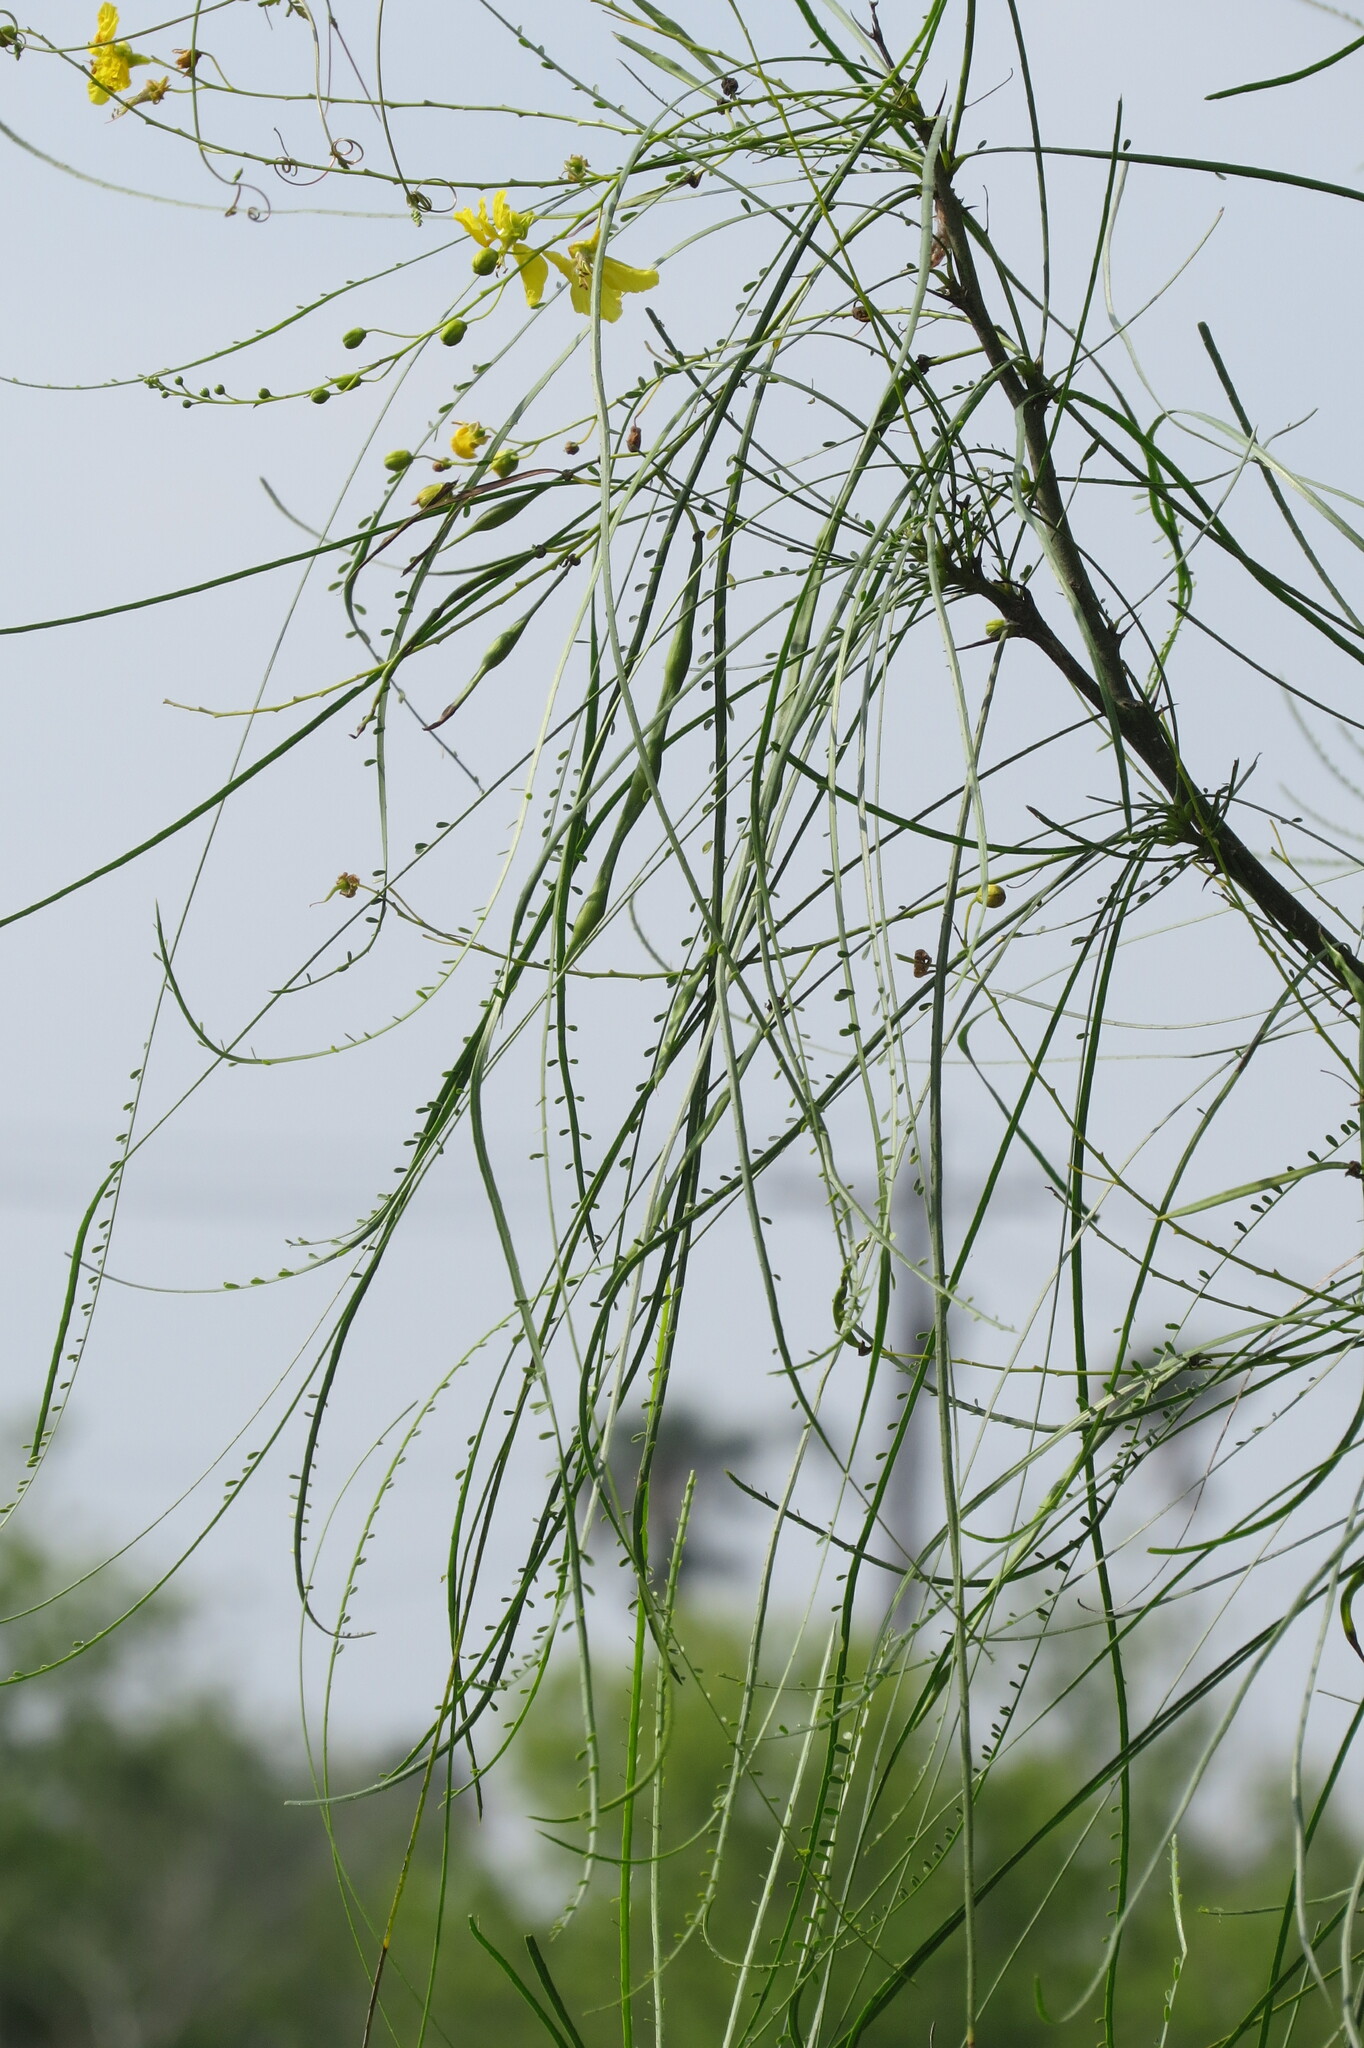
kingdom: Plantae
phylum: Tracheophyta
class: Magnoliopsida
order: Fabales
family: Fabaceae
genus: Parkinsonia
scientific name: Parkinsonia aculeata
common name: Jerusalem thorn
